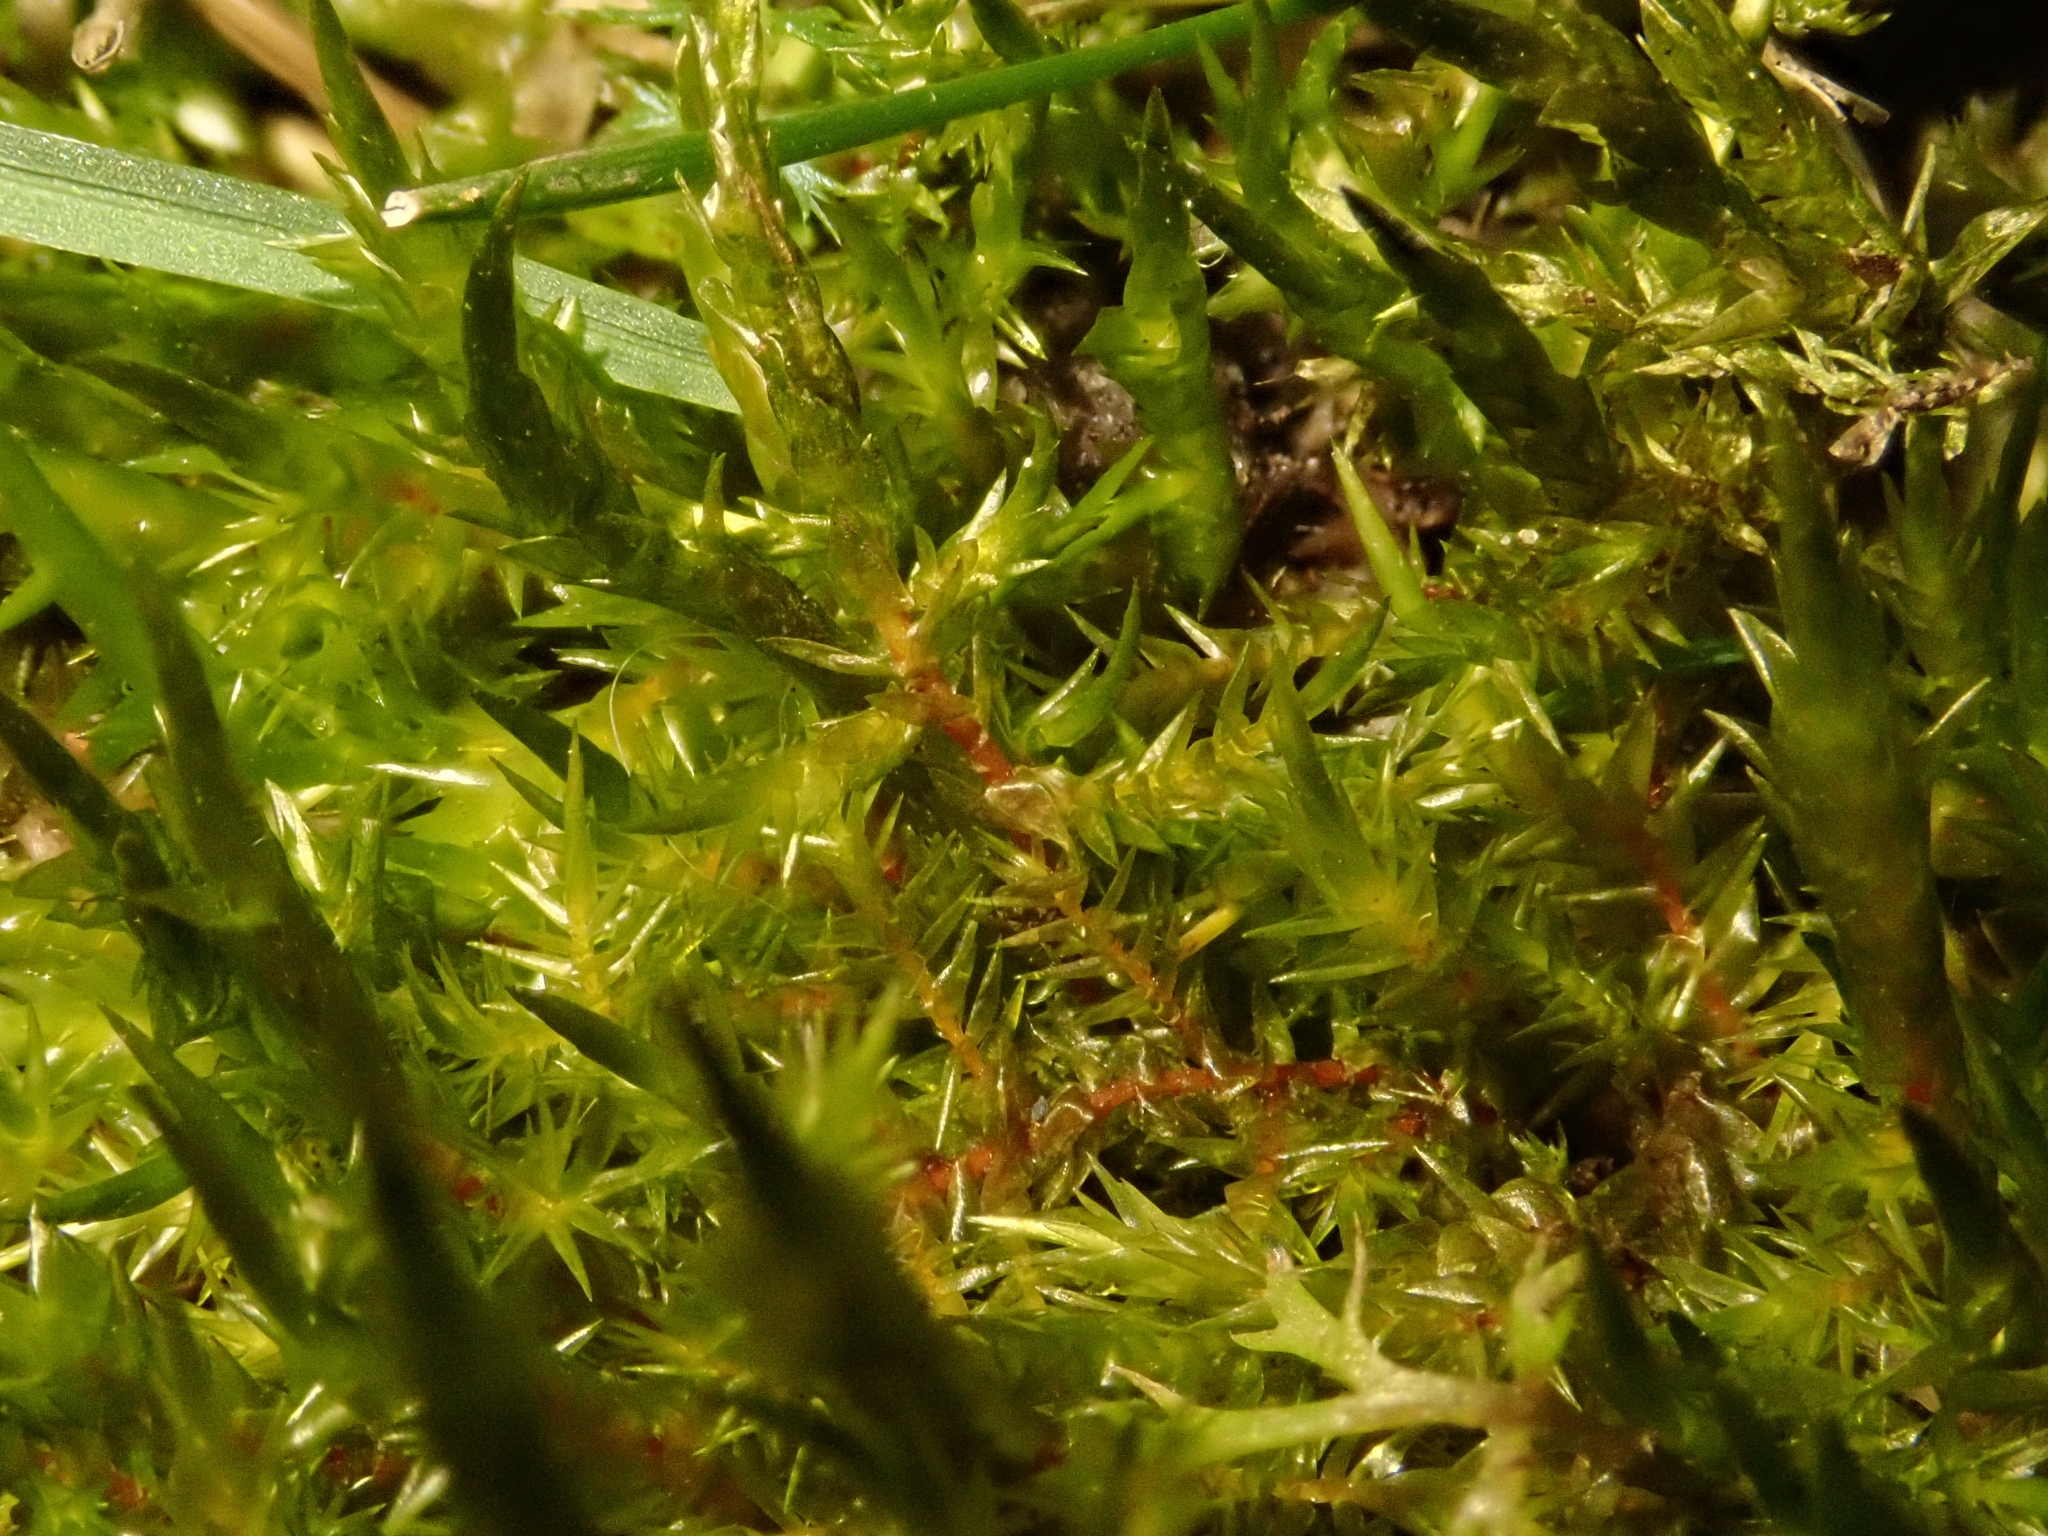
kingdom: Plantae
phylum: Bryophyta
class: Bryopsida
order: Hypnales
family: Pylaisiaceae
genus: Calliergonella
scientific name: Calliergonella cuspidata
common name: Common large wetland moss
